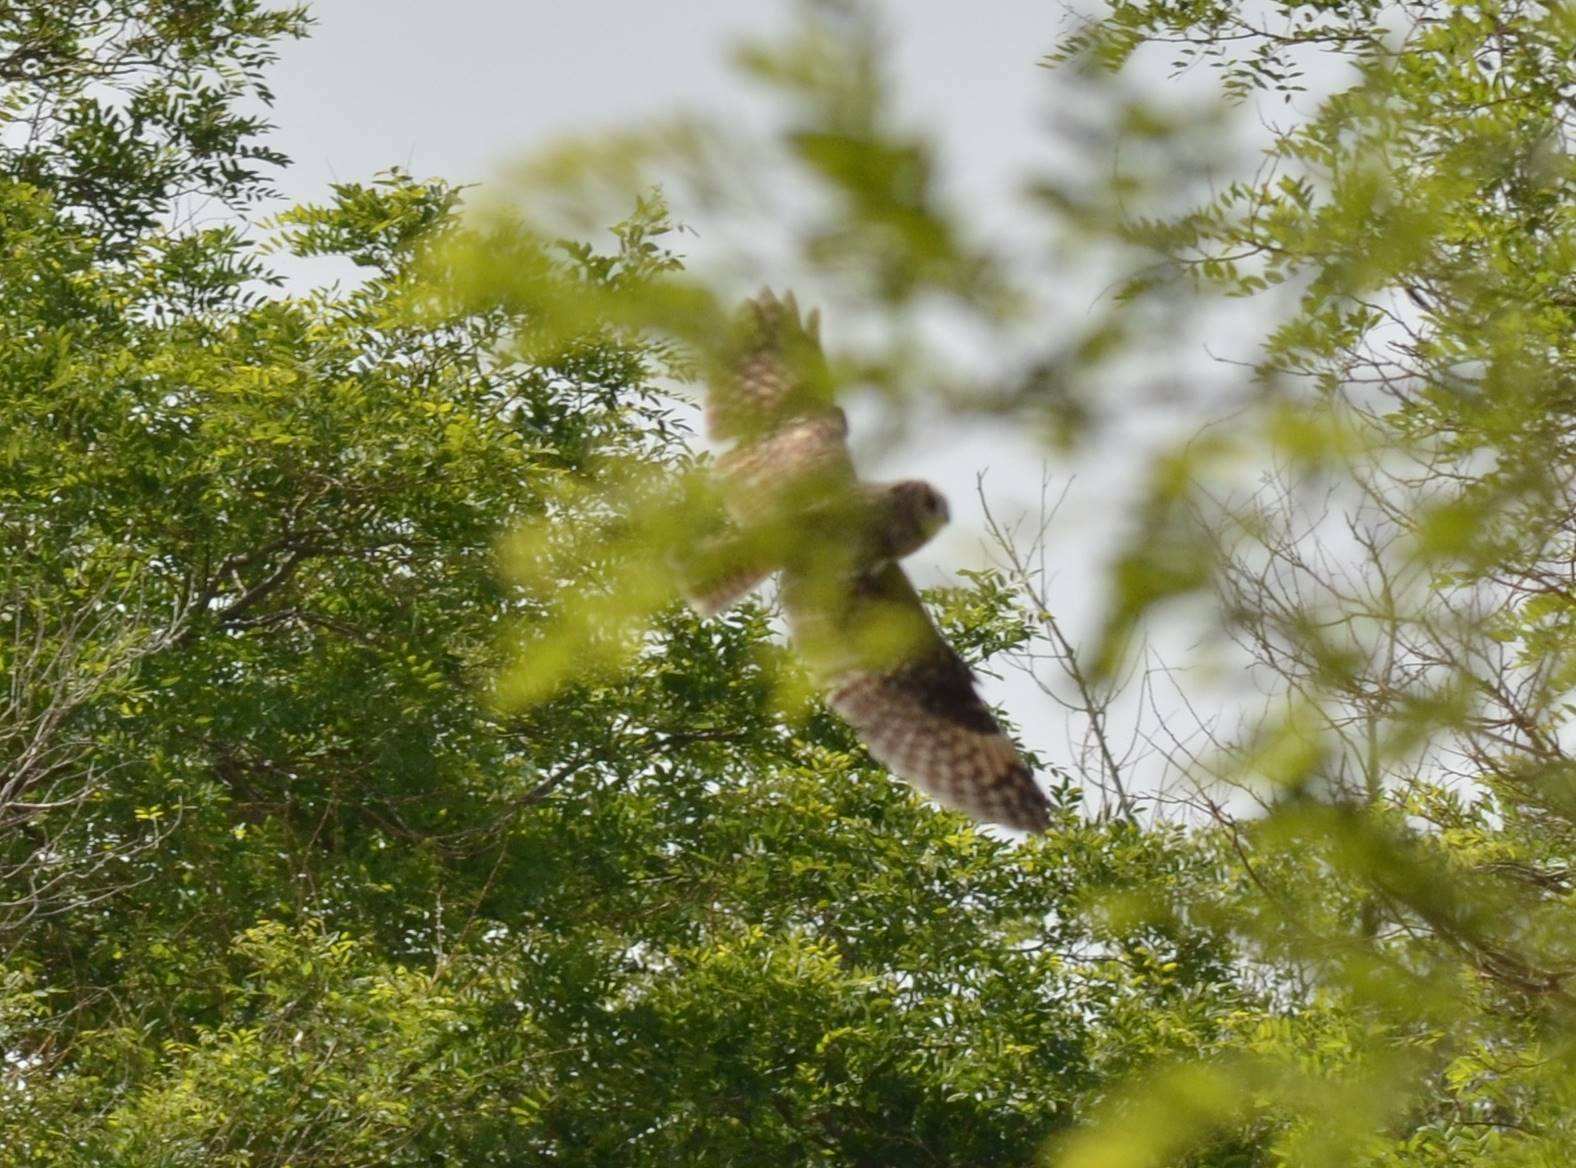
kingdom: Animalia
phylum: Chordata
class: Aves
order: Strigiformes
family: Strigidae
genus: Asio
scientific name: Asio otus
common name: Long-eared owl
